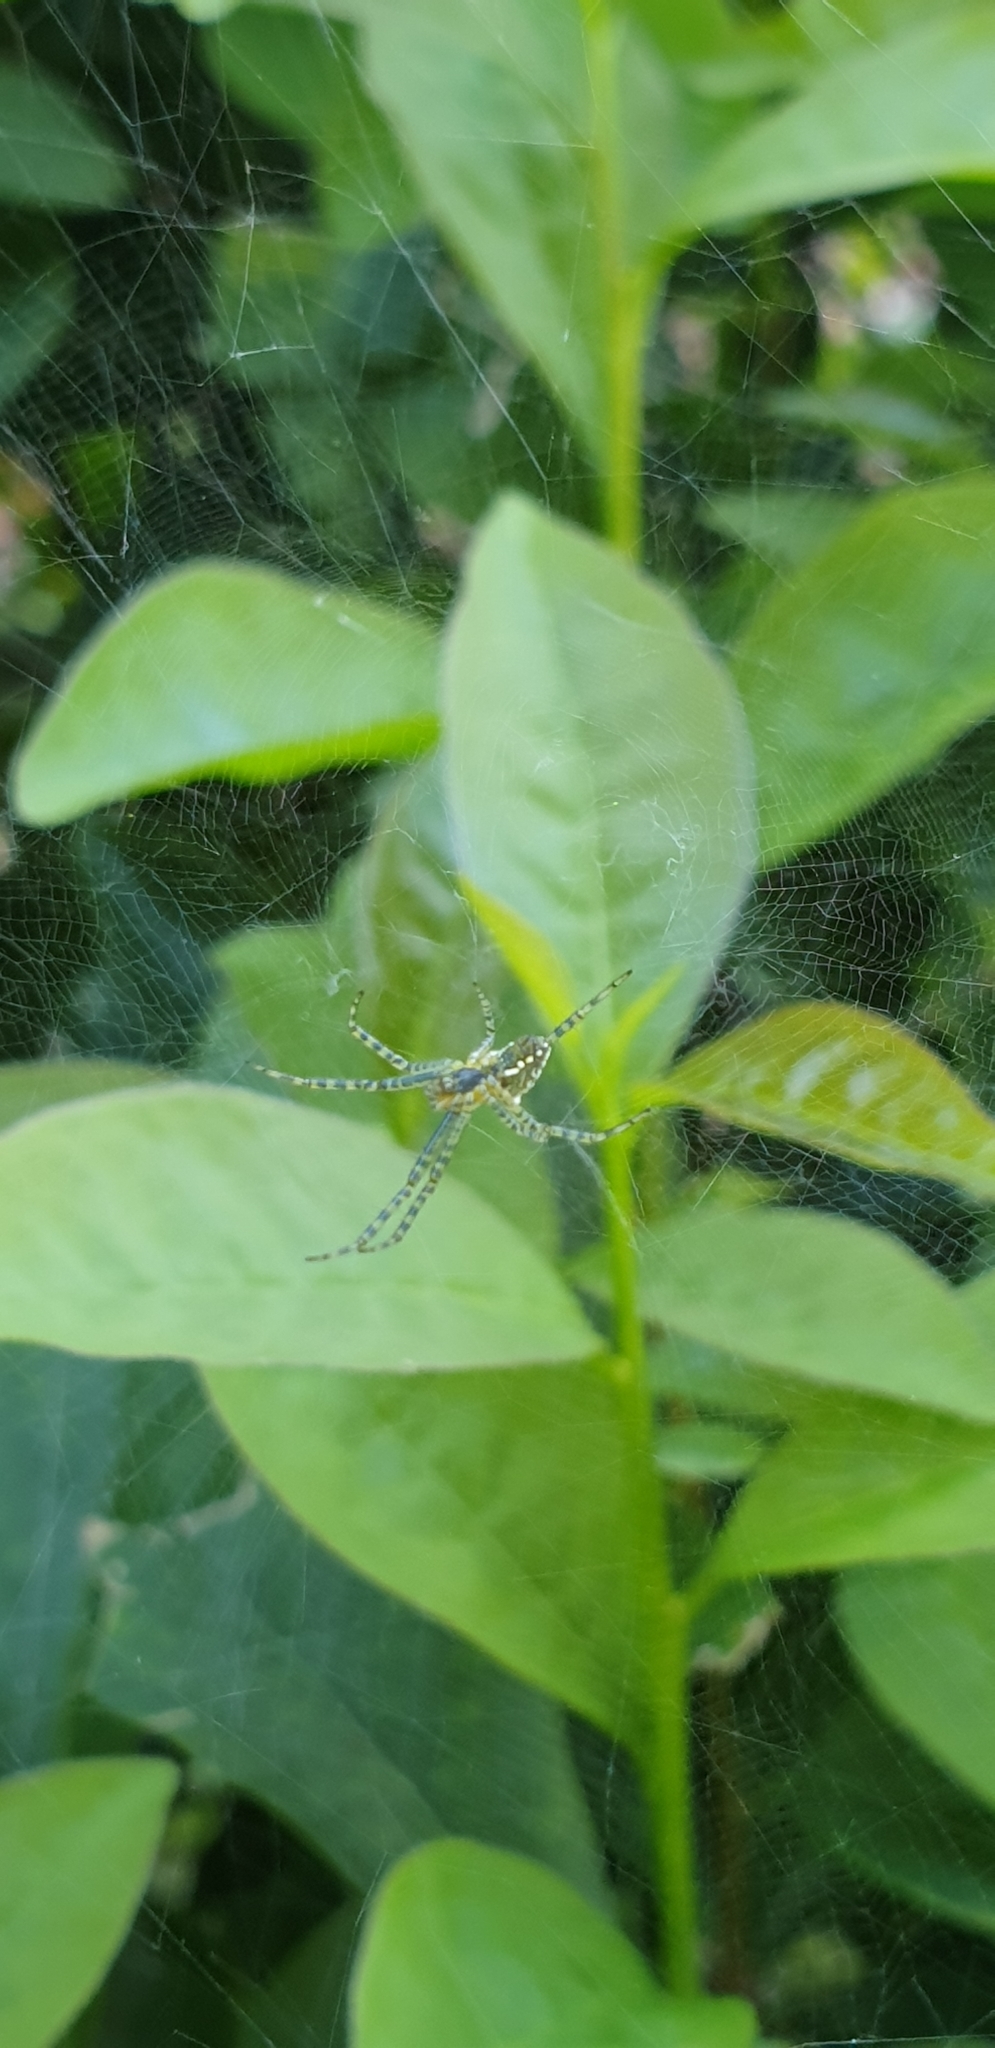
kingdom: Chromista
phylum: Ochrophyta
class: Dictyochophyceae
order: Pedinellales
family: Cyrtophoraceae
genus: Cyrtophora
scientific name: Cyrtophora moluccensis
